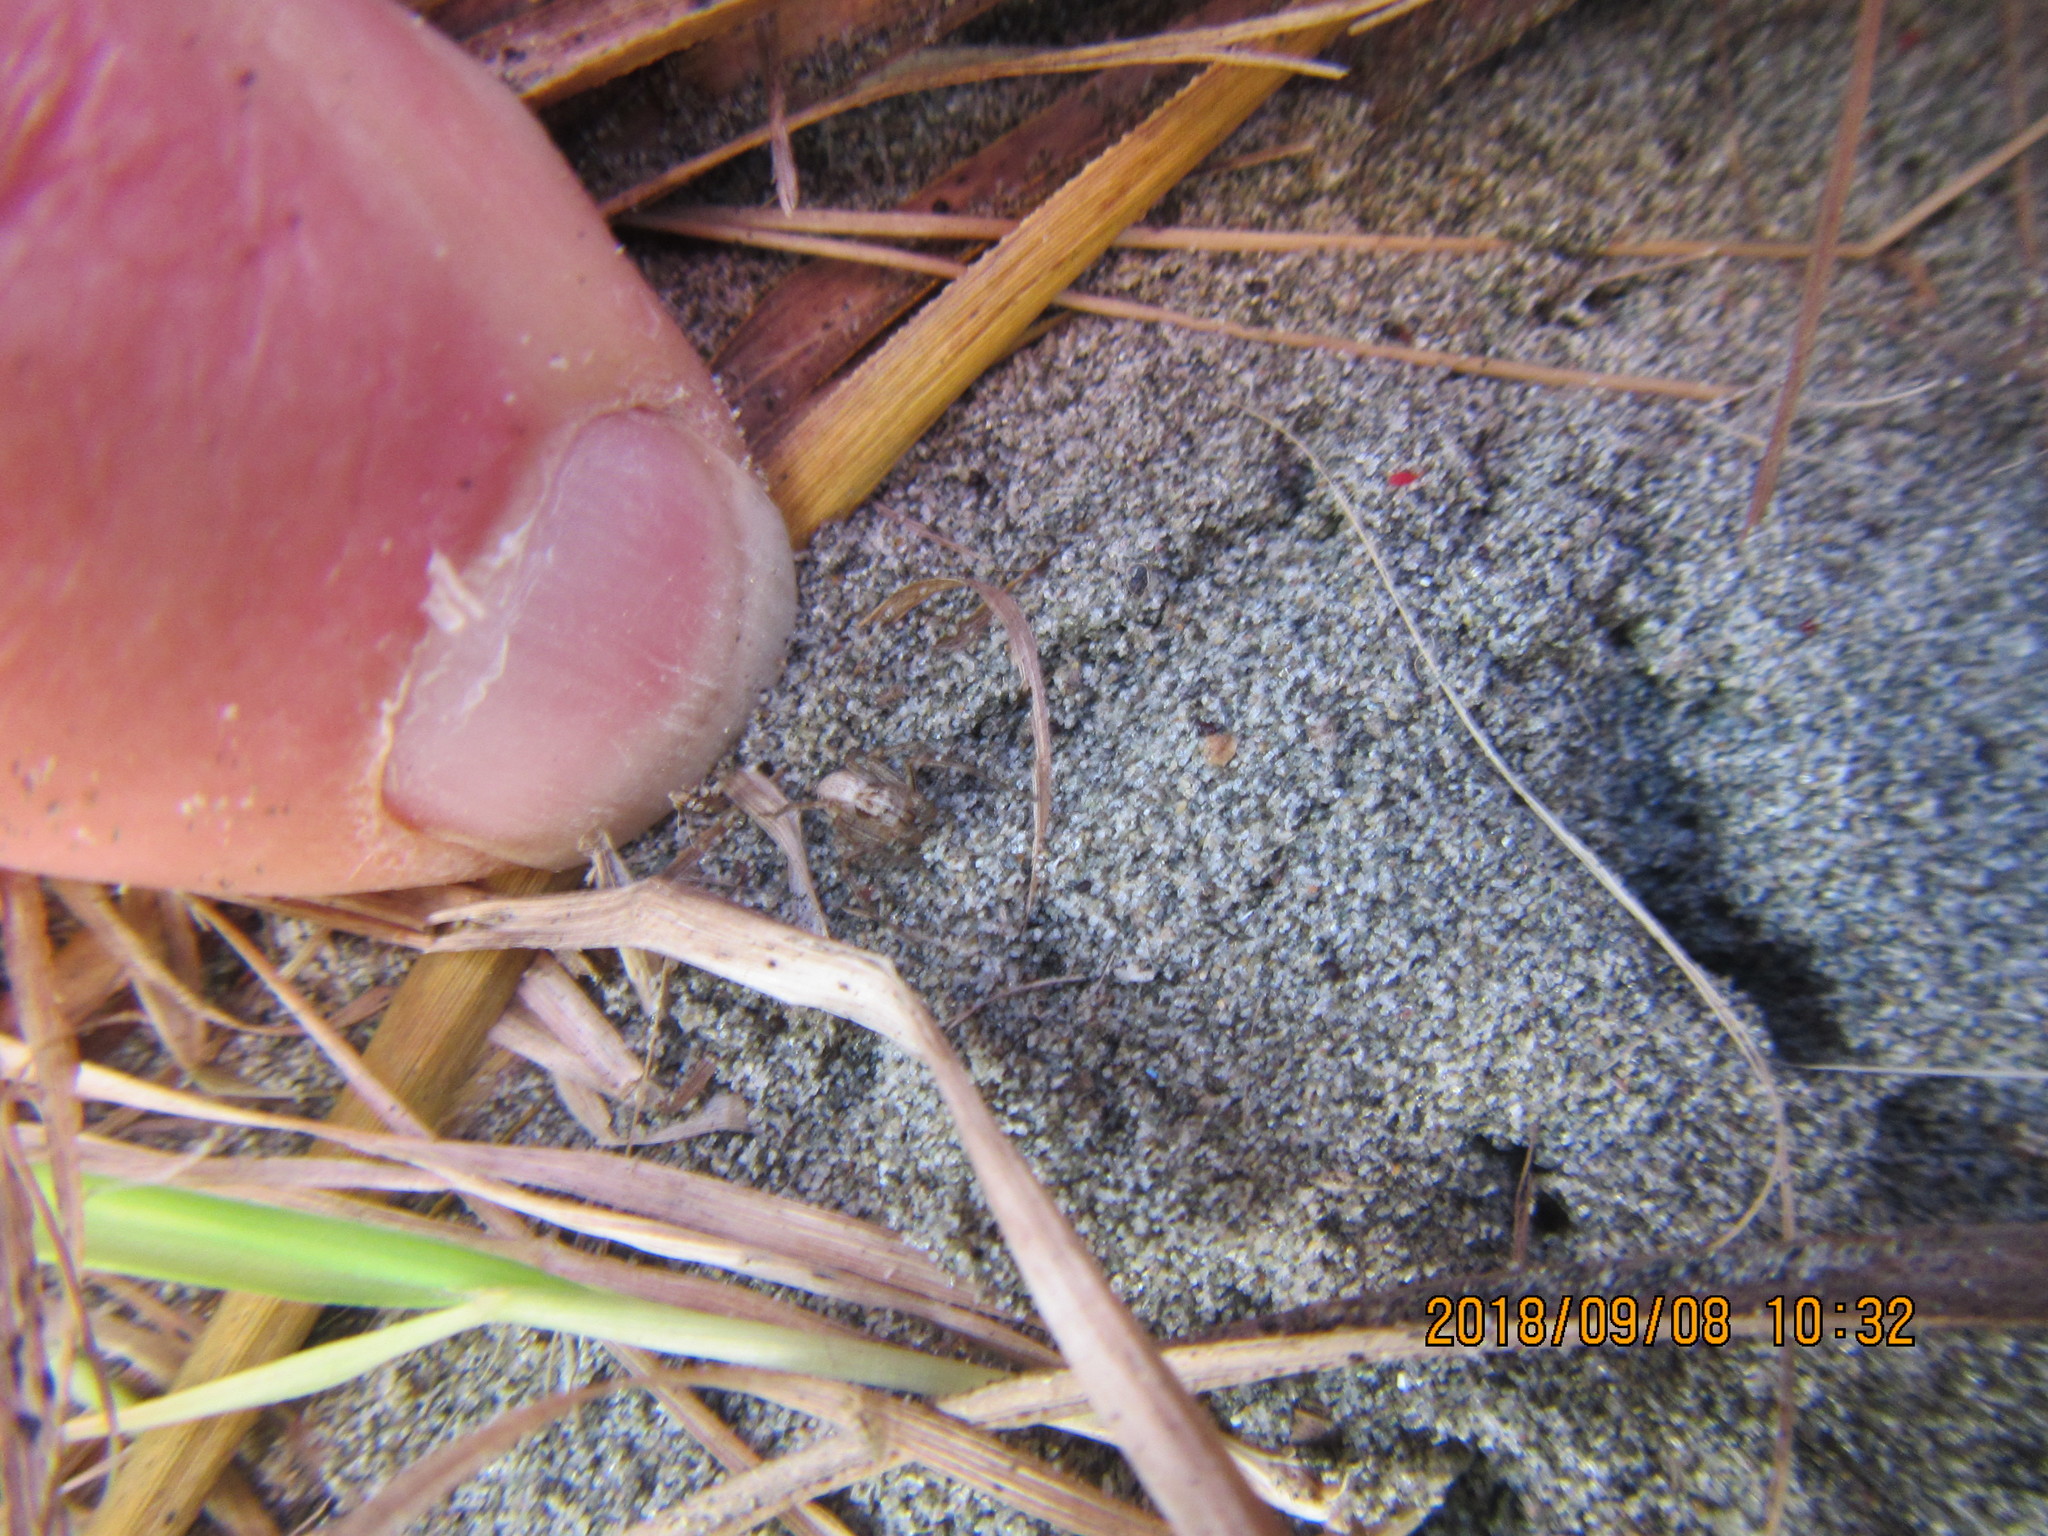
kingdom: Animalia
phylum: Arthropoda
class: Arachnida
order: Araneae
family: Oxyopidae
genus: Oxyopes
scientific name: Oxyopes gracilipes
